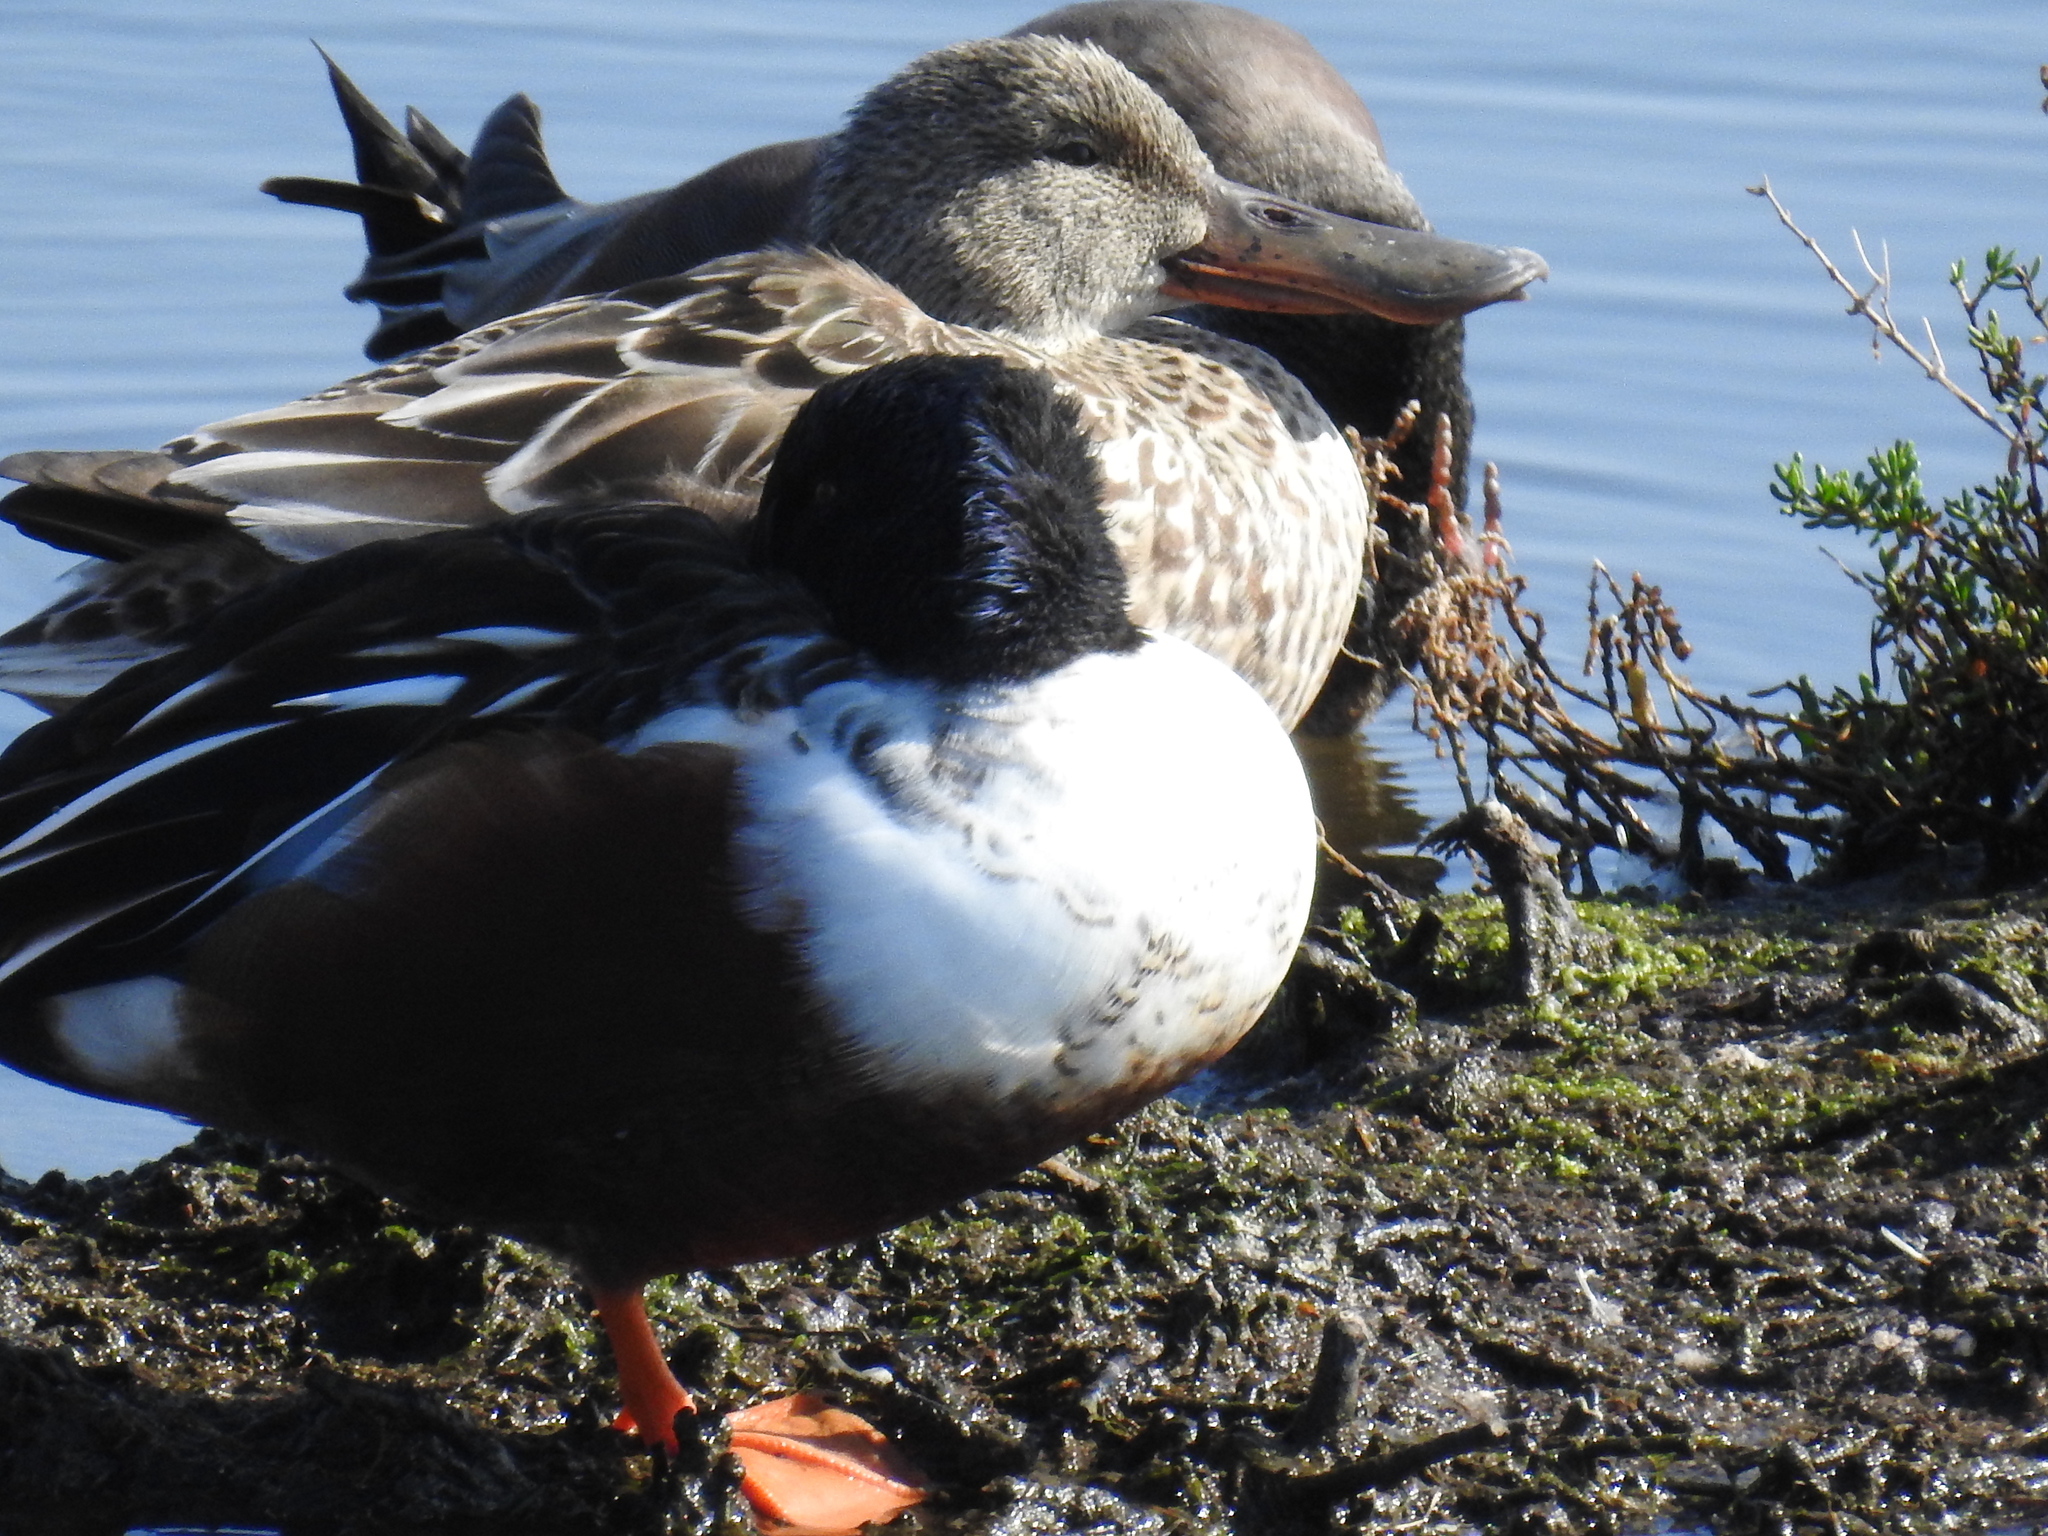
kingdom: Animalia
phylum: Chordata
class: Aves
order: Anseriformes
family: Anatidae
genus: Spatula
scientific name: Spatula clypeata
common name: Northern shoveler
